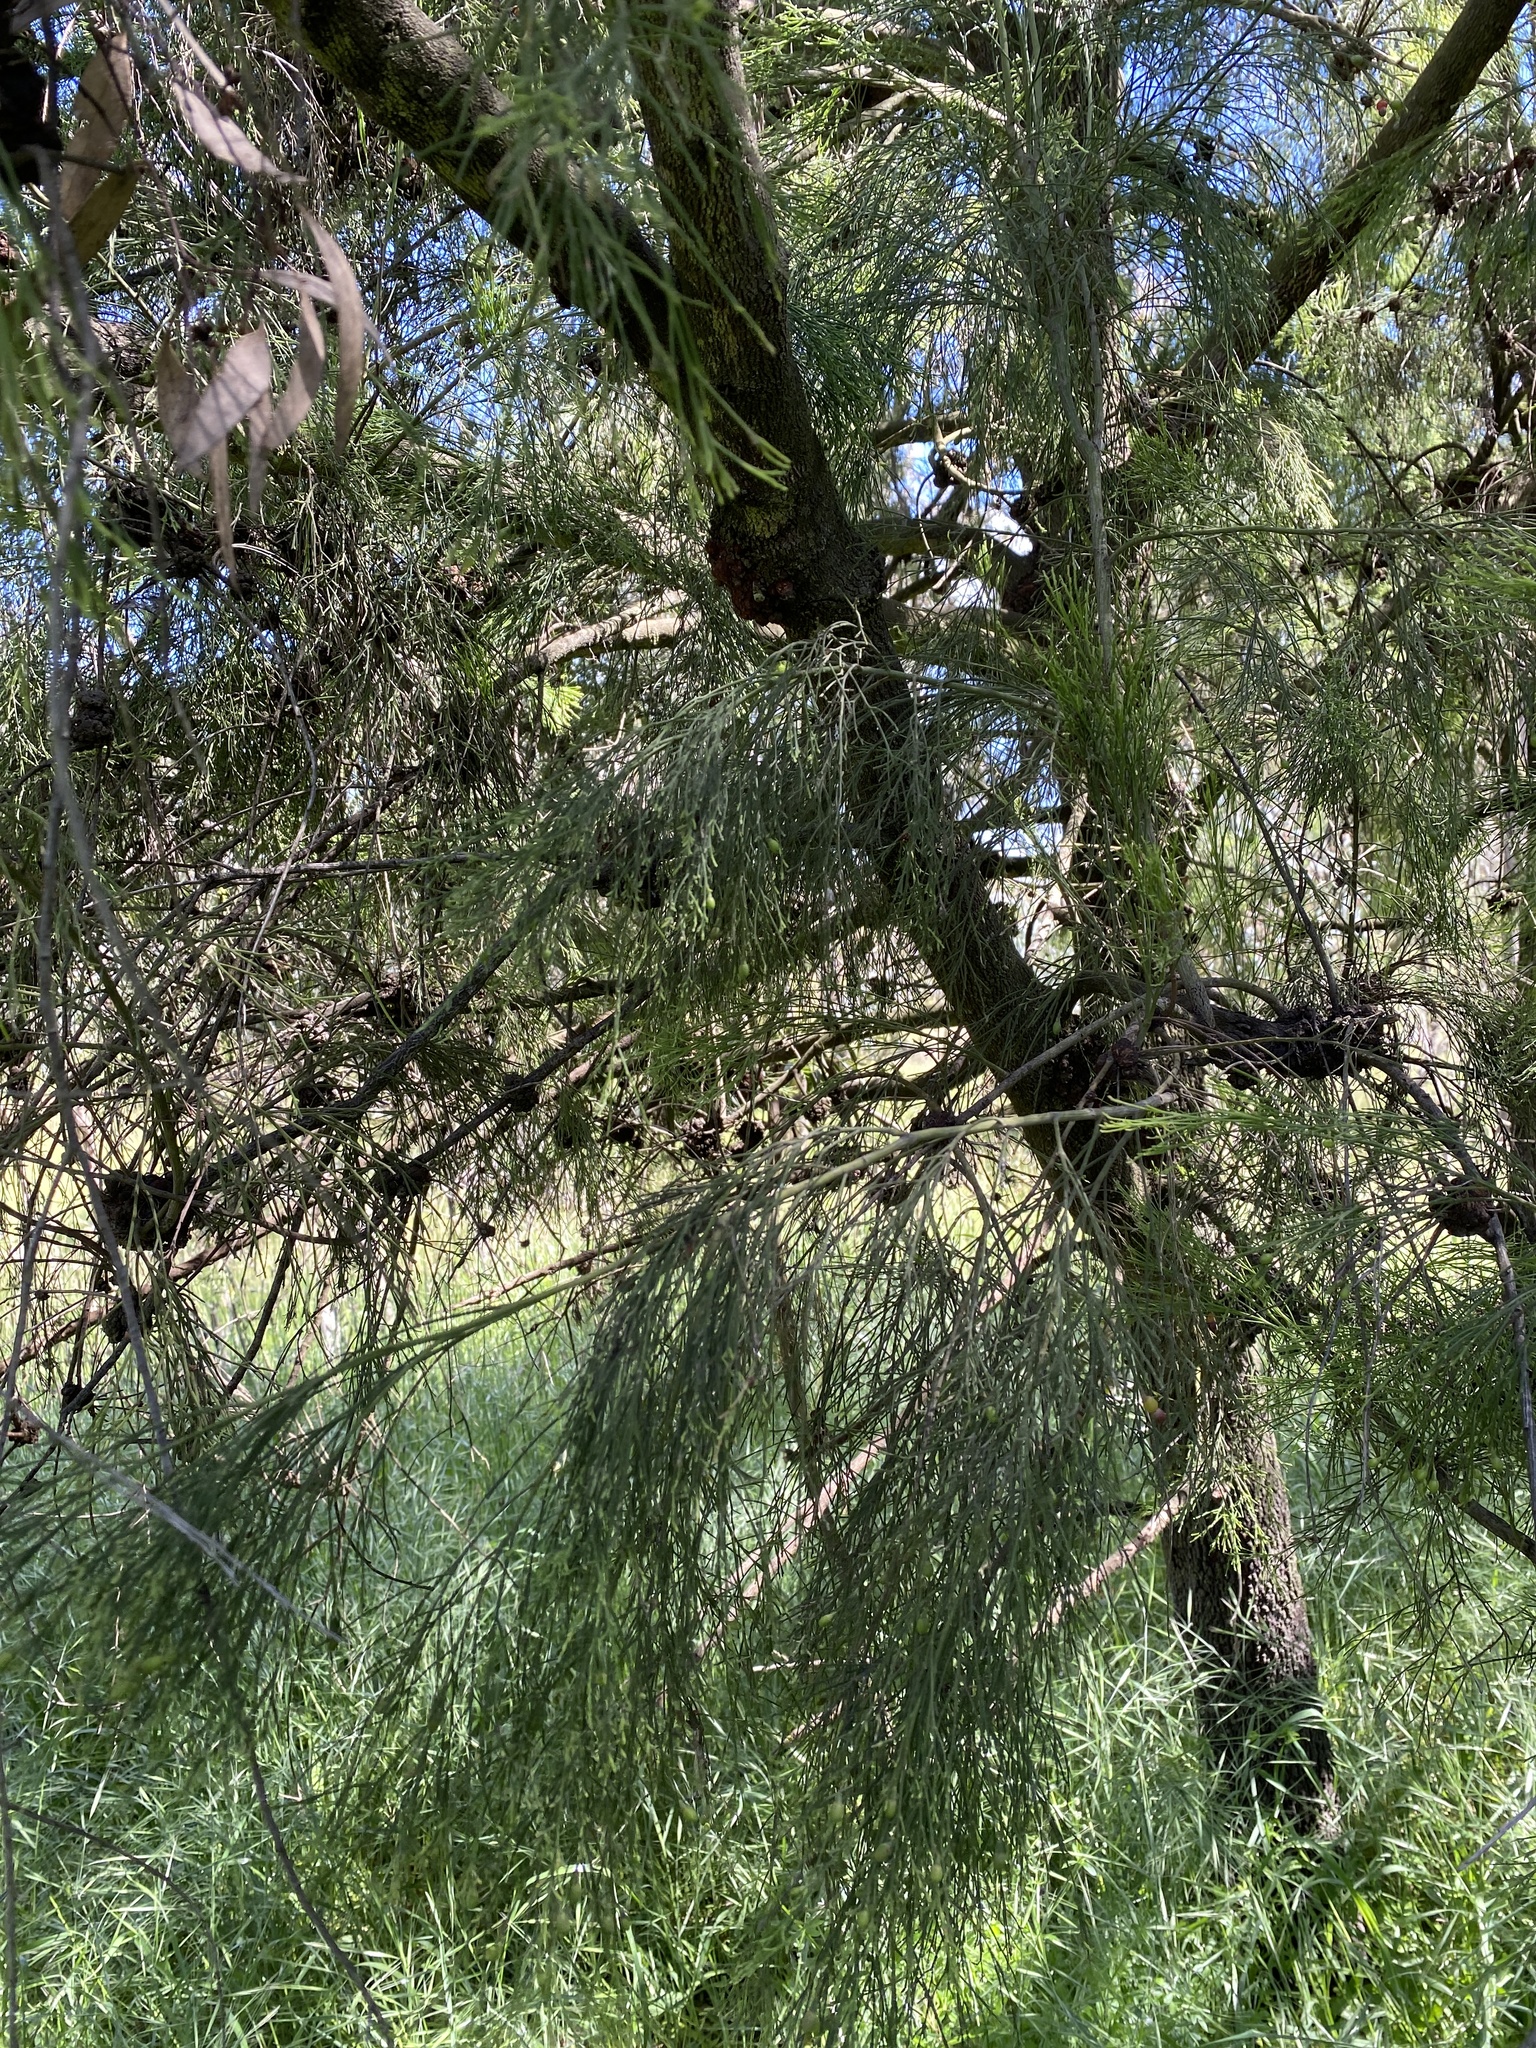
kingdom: Plantae
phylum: Tracheophyta
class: Magnoliopsida
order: Santalales
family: Santalaceae
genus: Exocarpos
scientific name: Exocarpos cupressiformis
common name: Cherry ballart
